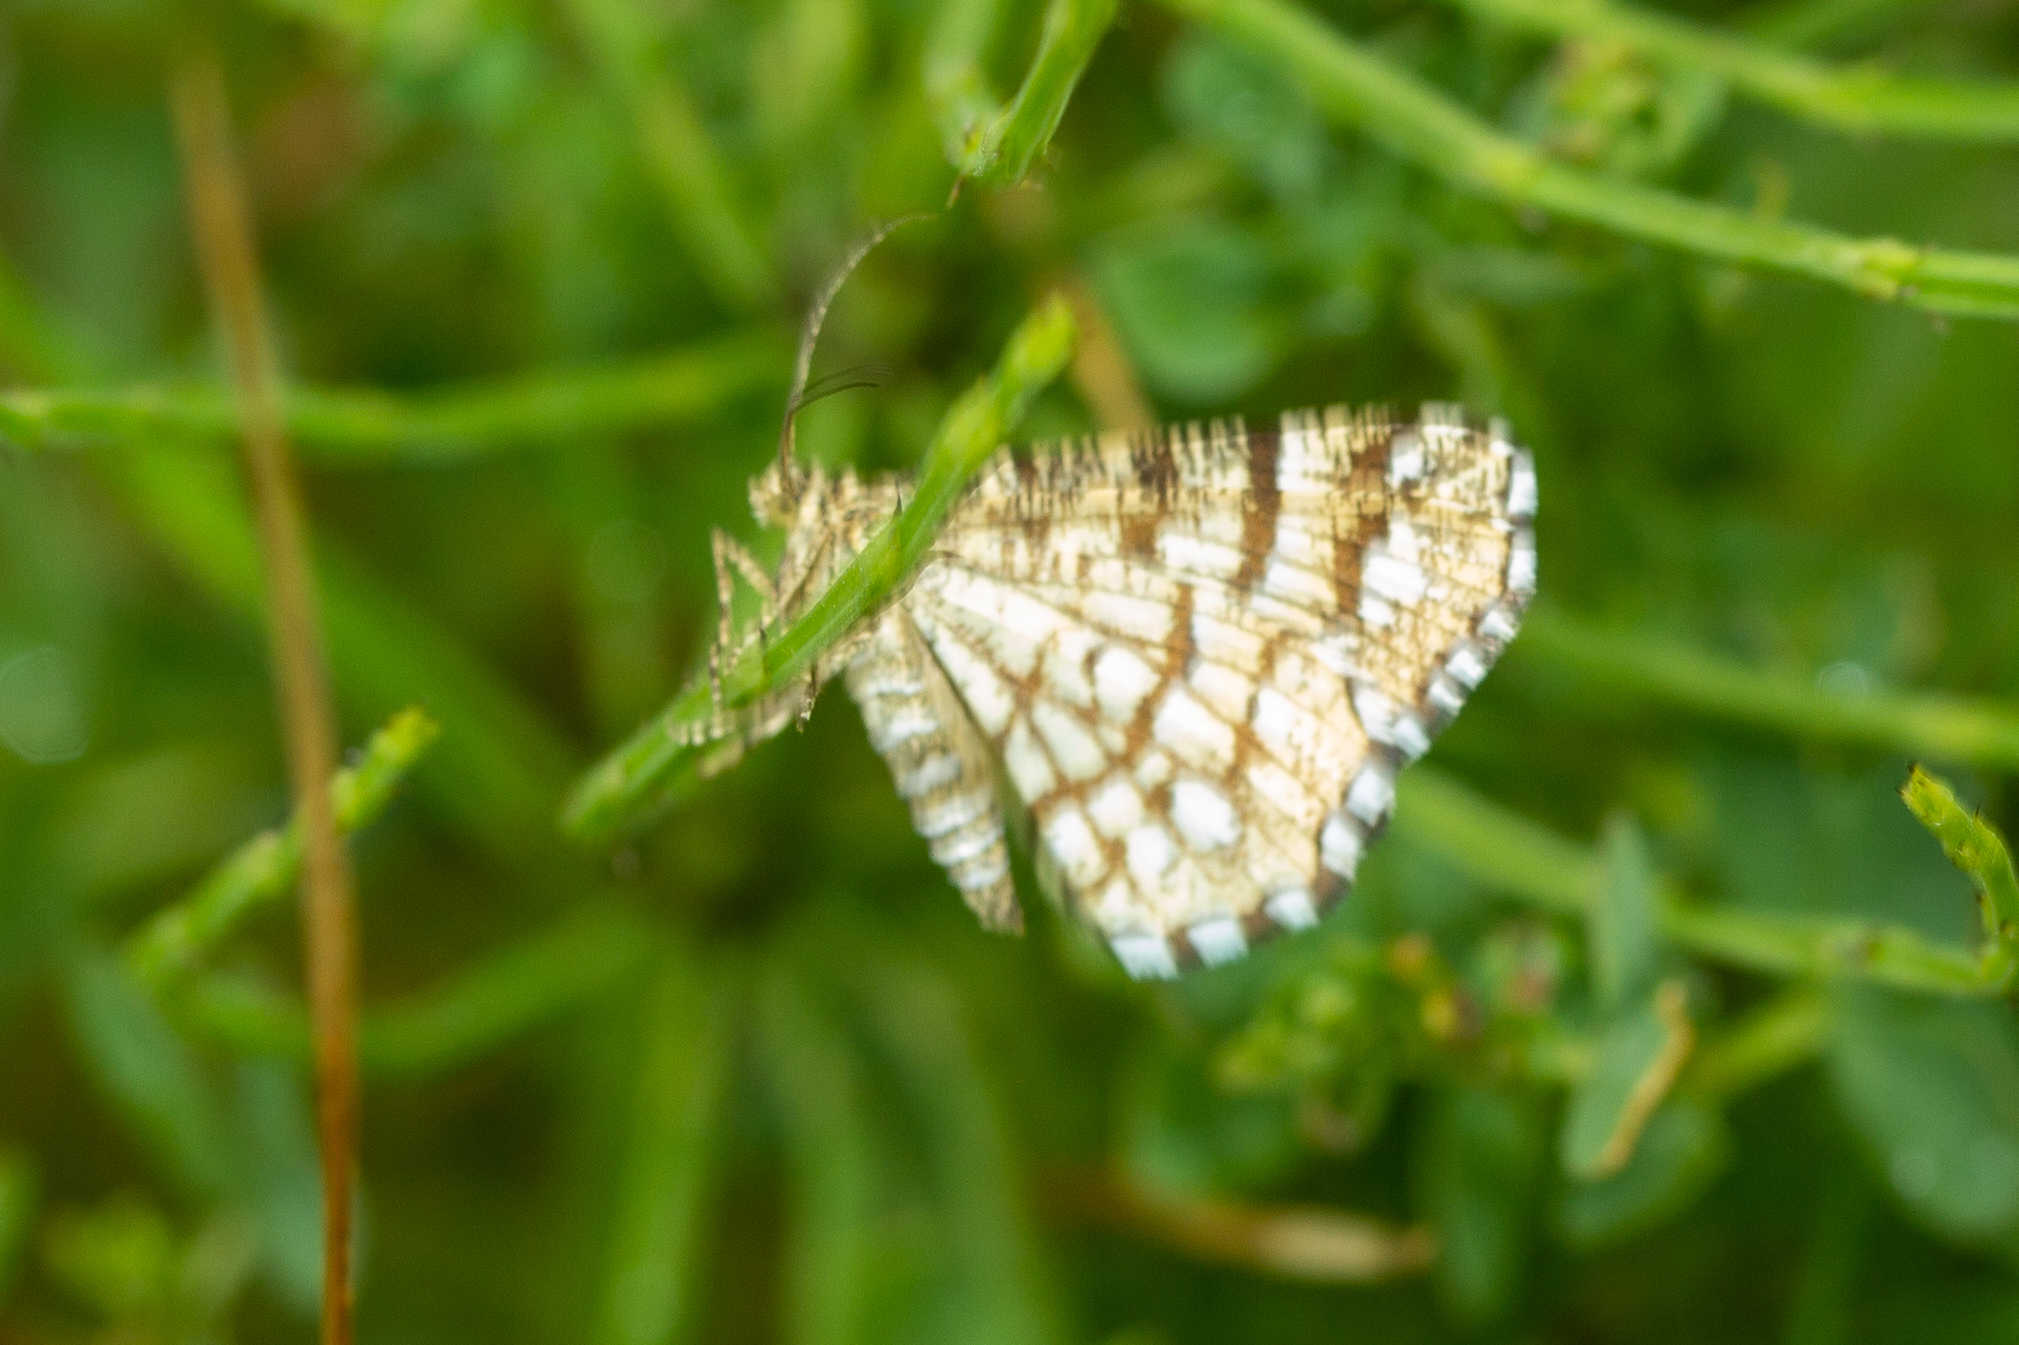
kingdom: Animalia
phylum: Arthropoda
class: Insecta
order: Lepidoptera
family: Geometridae
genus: Chiasmia
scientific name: Chiasmia clathrata
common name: Latticed heath
